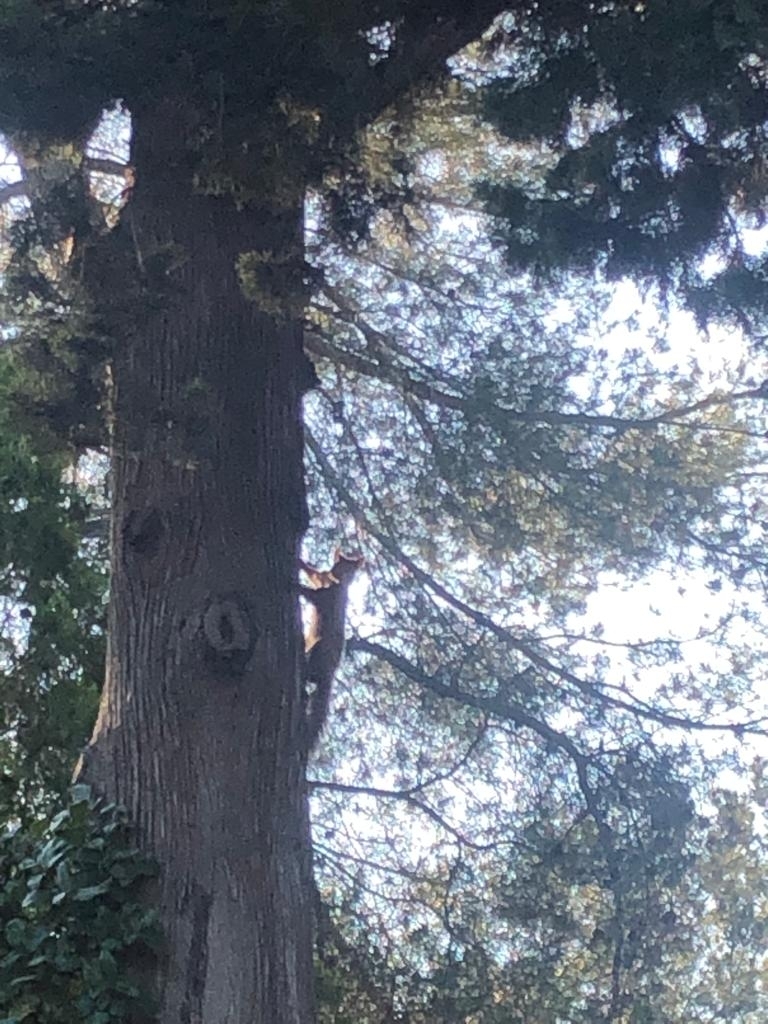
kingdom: Animalia
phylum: Chordata
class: Mammalia
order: Rodentia
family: Sciuridae
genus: Sciurus
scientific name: Sciurus vulgaris
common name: Eurasian red squirrel
